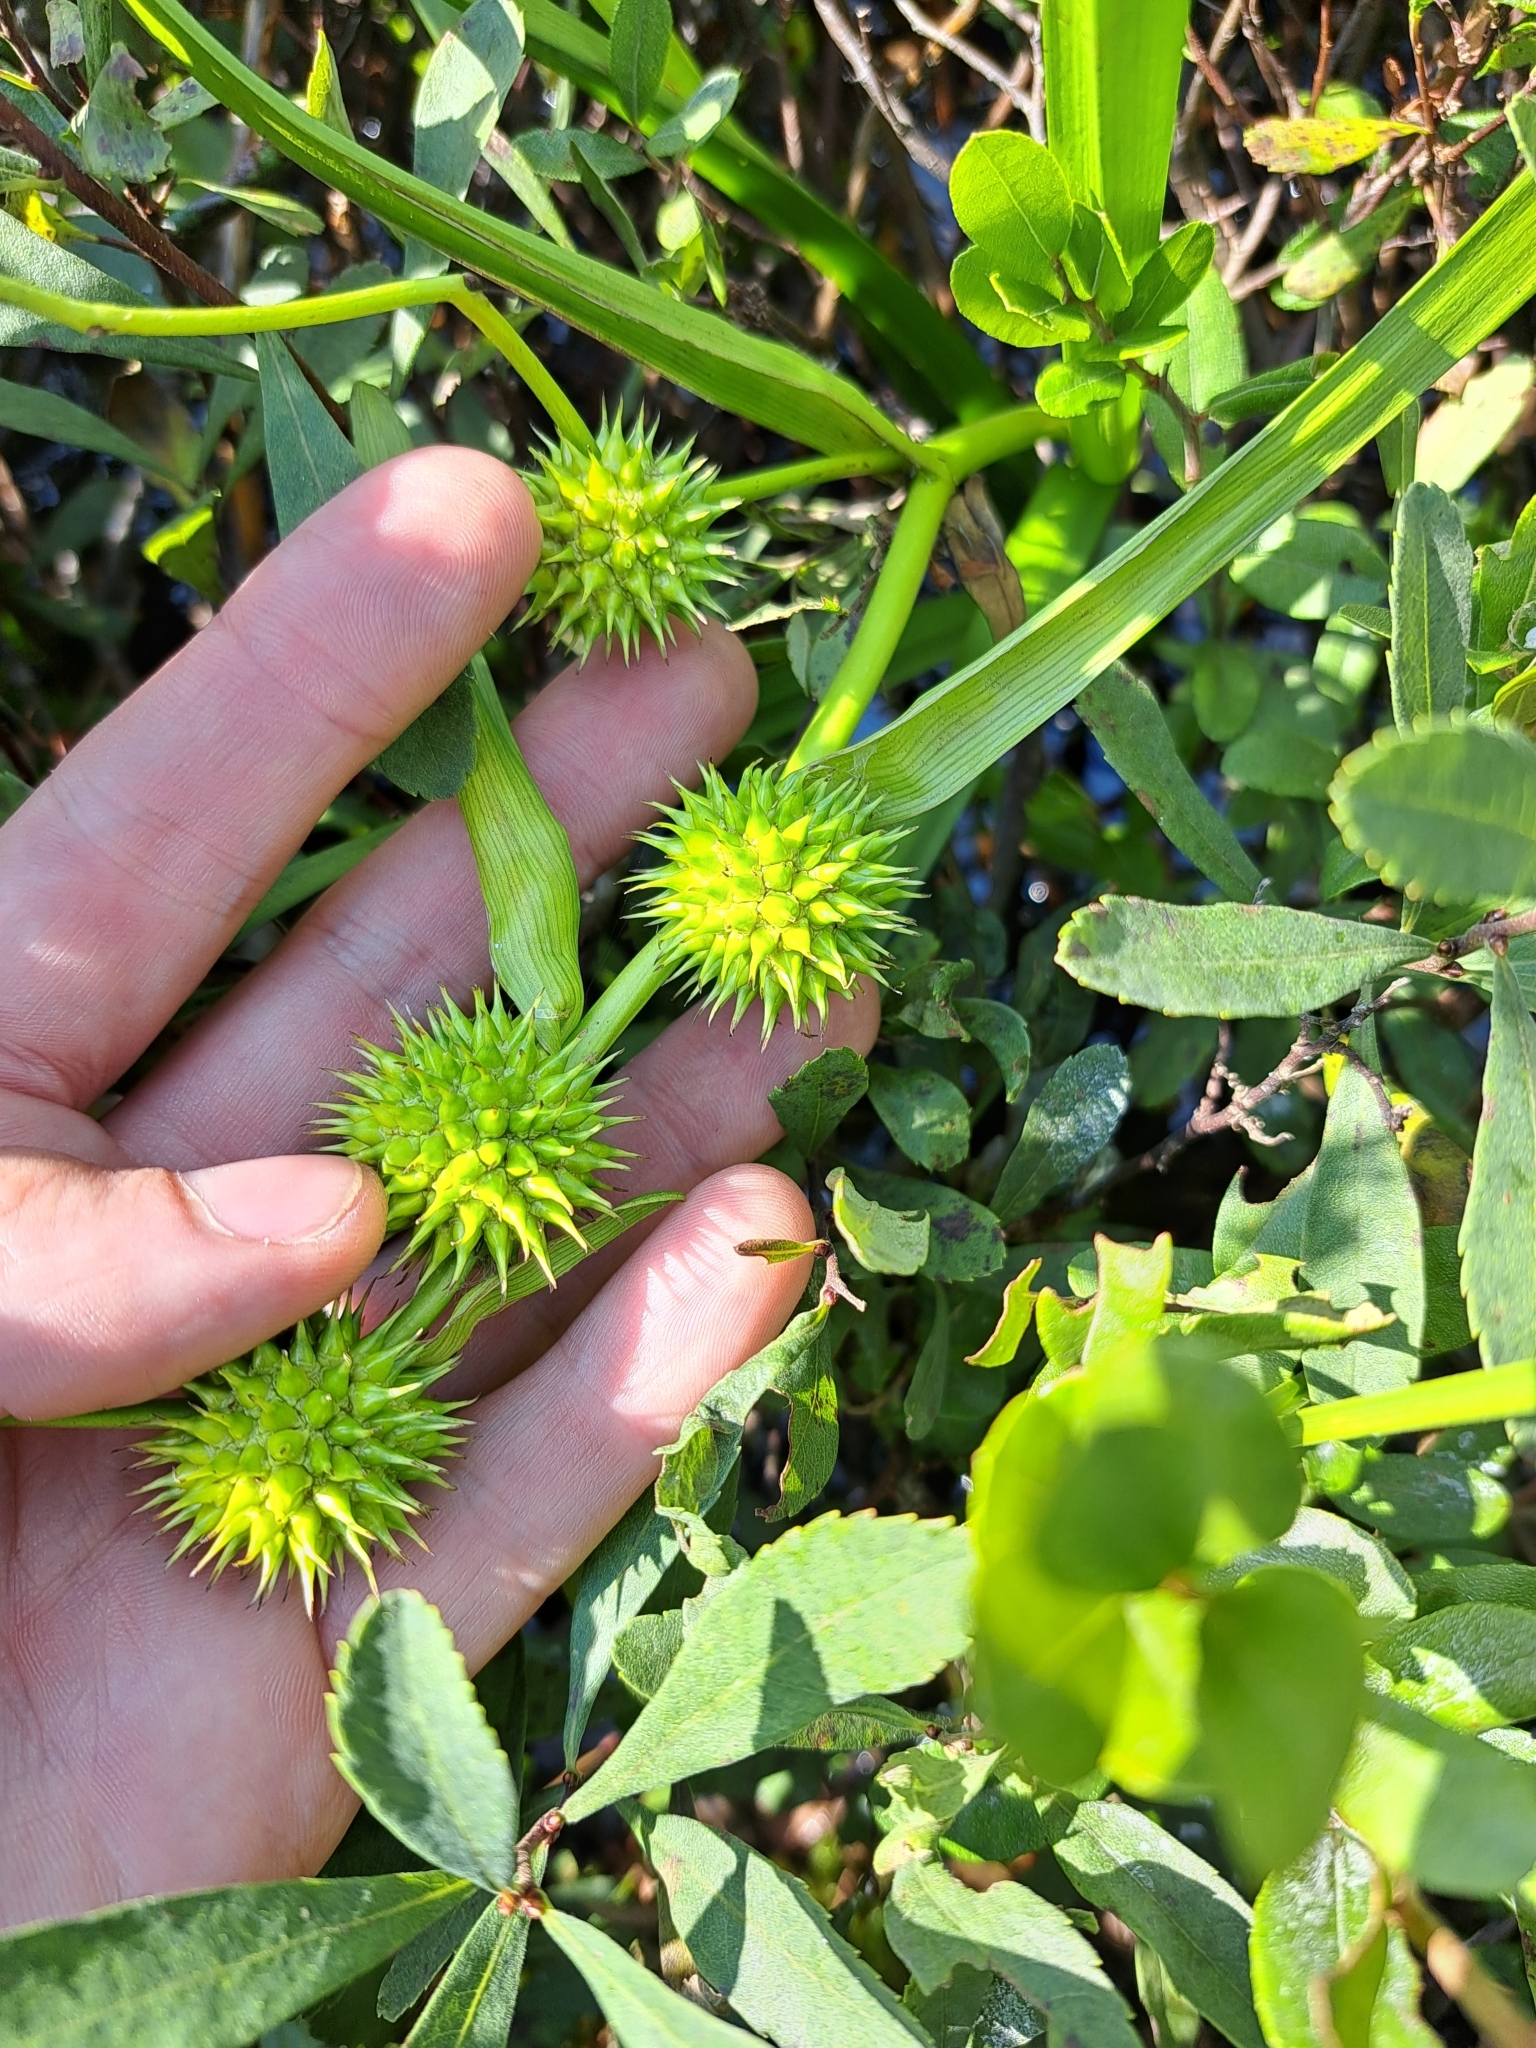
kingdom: Plantae
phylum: Tracheophyta
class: Liliopsida
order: Poales
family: Typhaceae
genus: Sparganium
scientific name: Sparganium americanum
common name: American burreed
